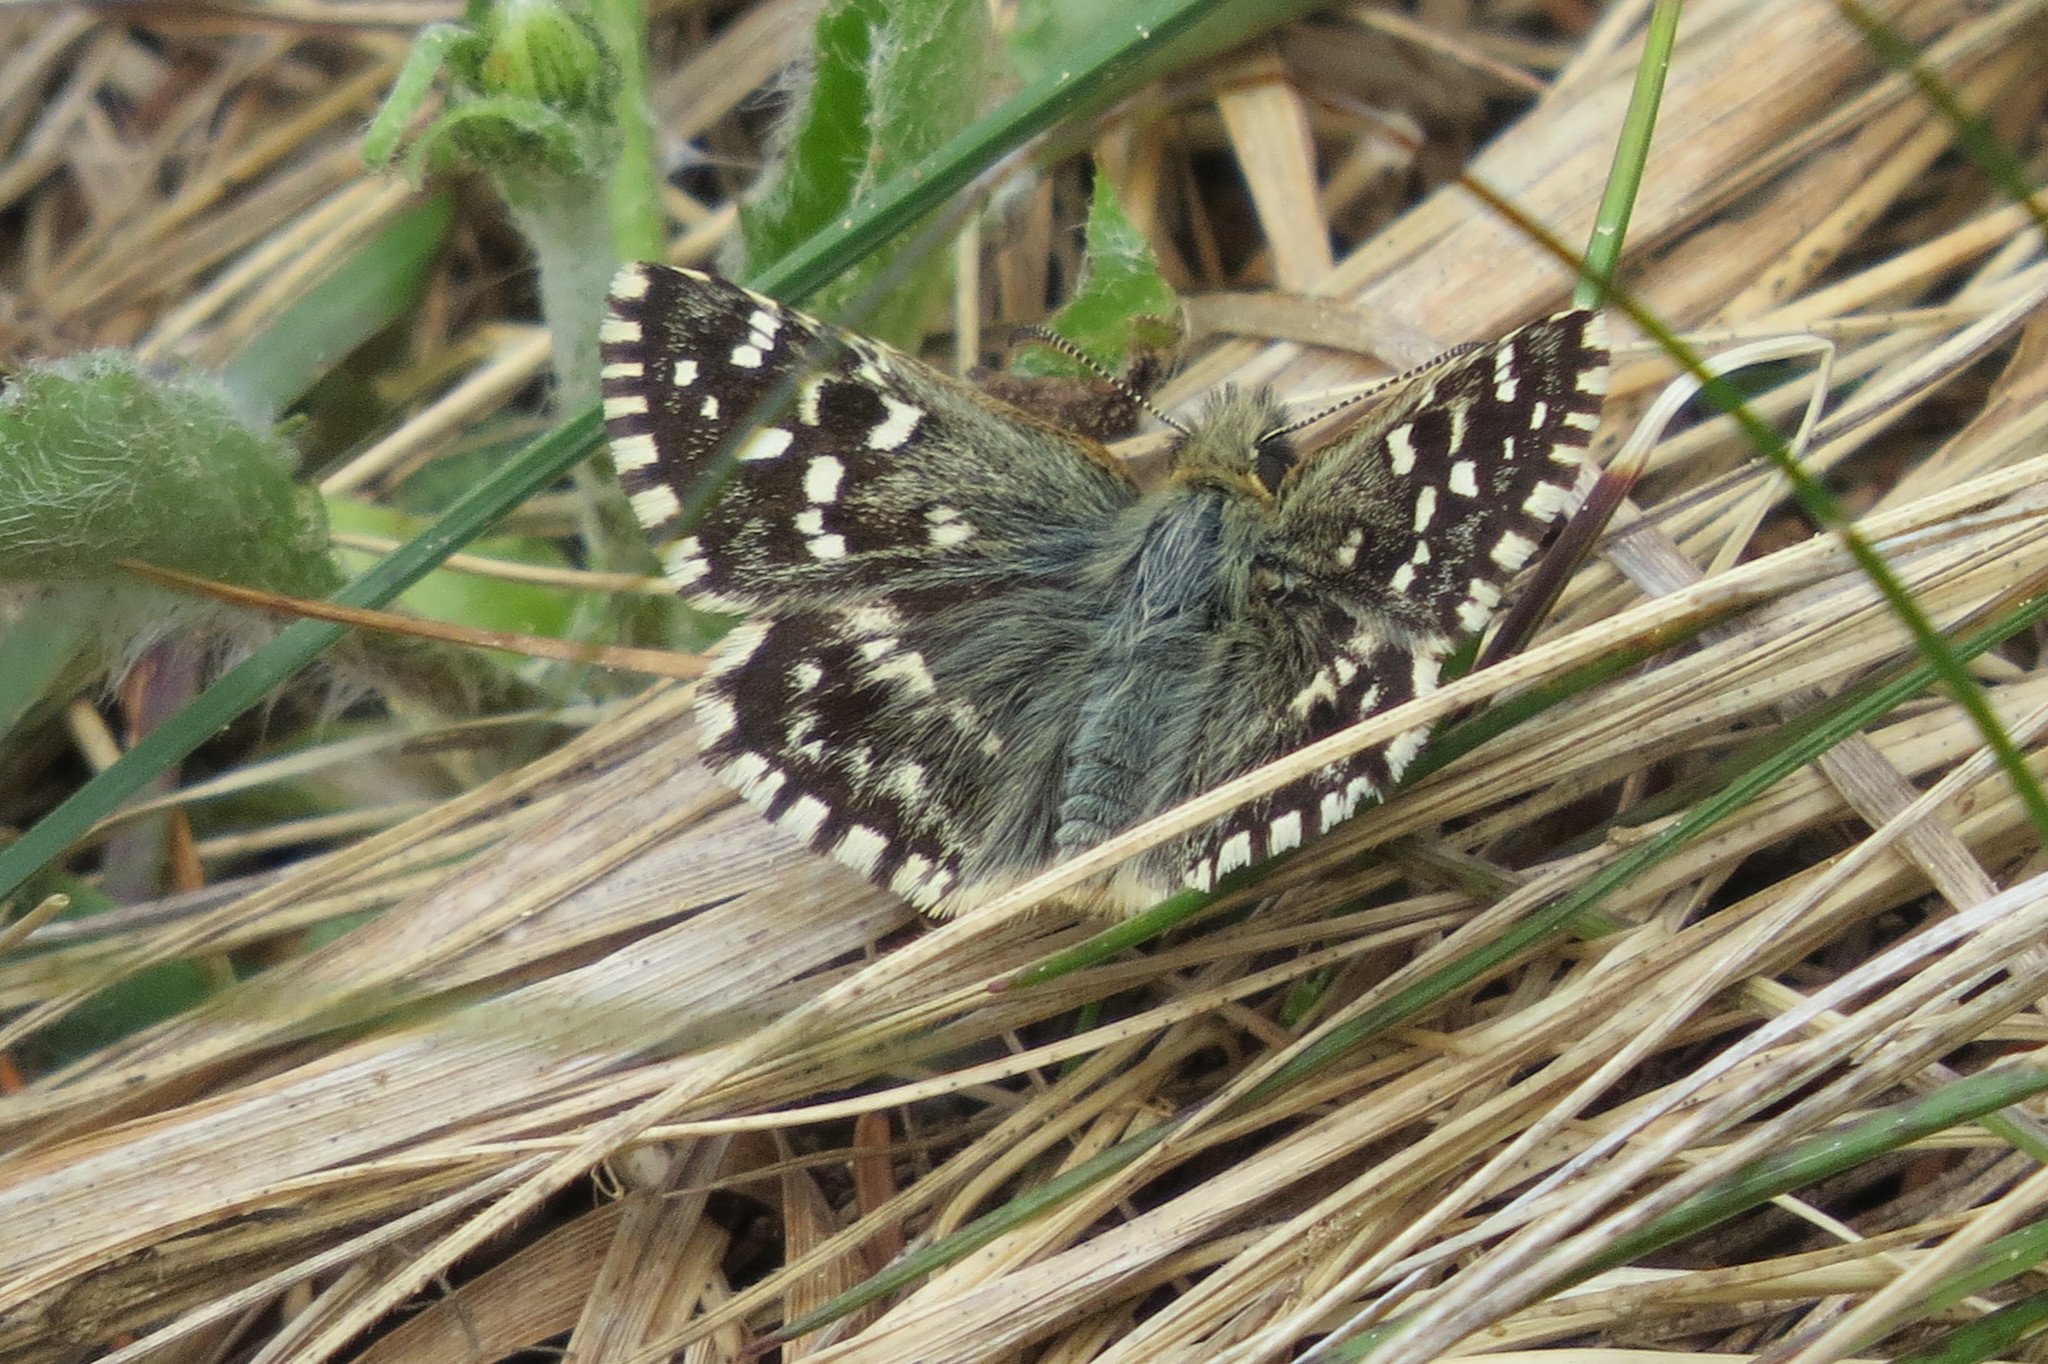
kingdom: Animalia
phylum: Arthropoda
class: Insecta
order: Lepidoptera
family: Hesperiidae
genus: Pyrgus
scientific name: Pyrgus malvoides
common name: Southern grizzled skipper
